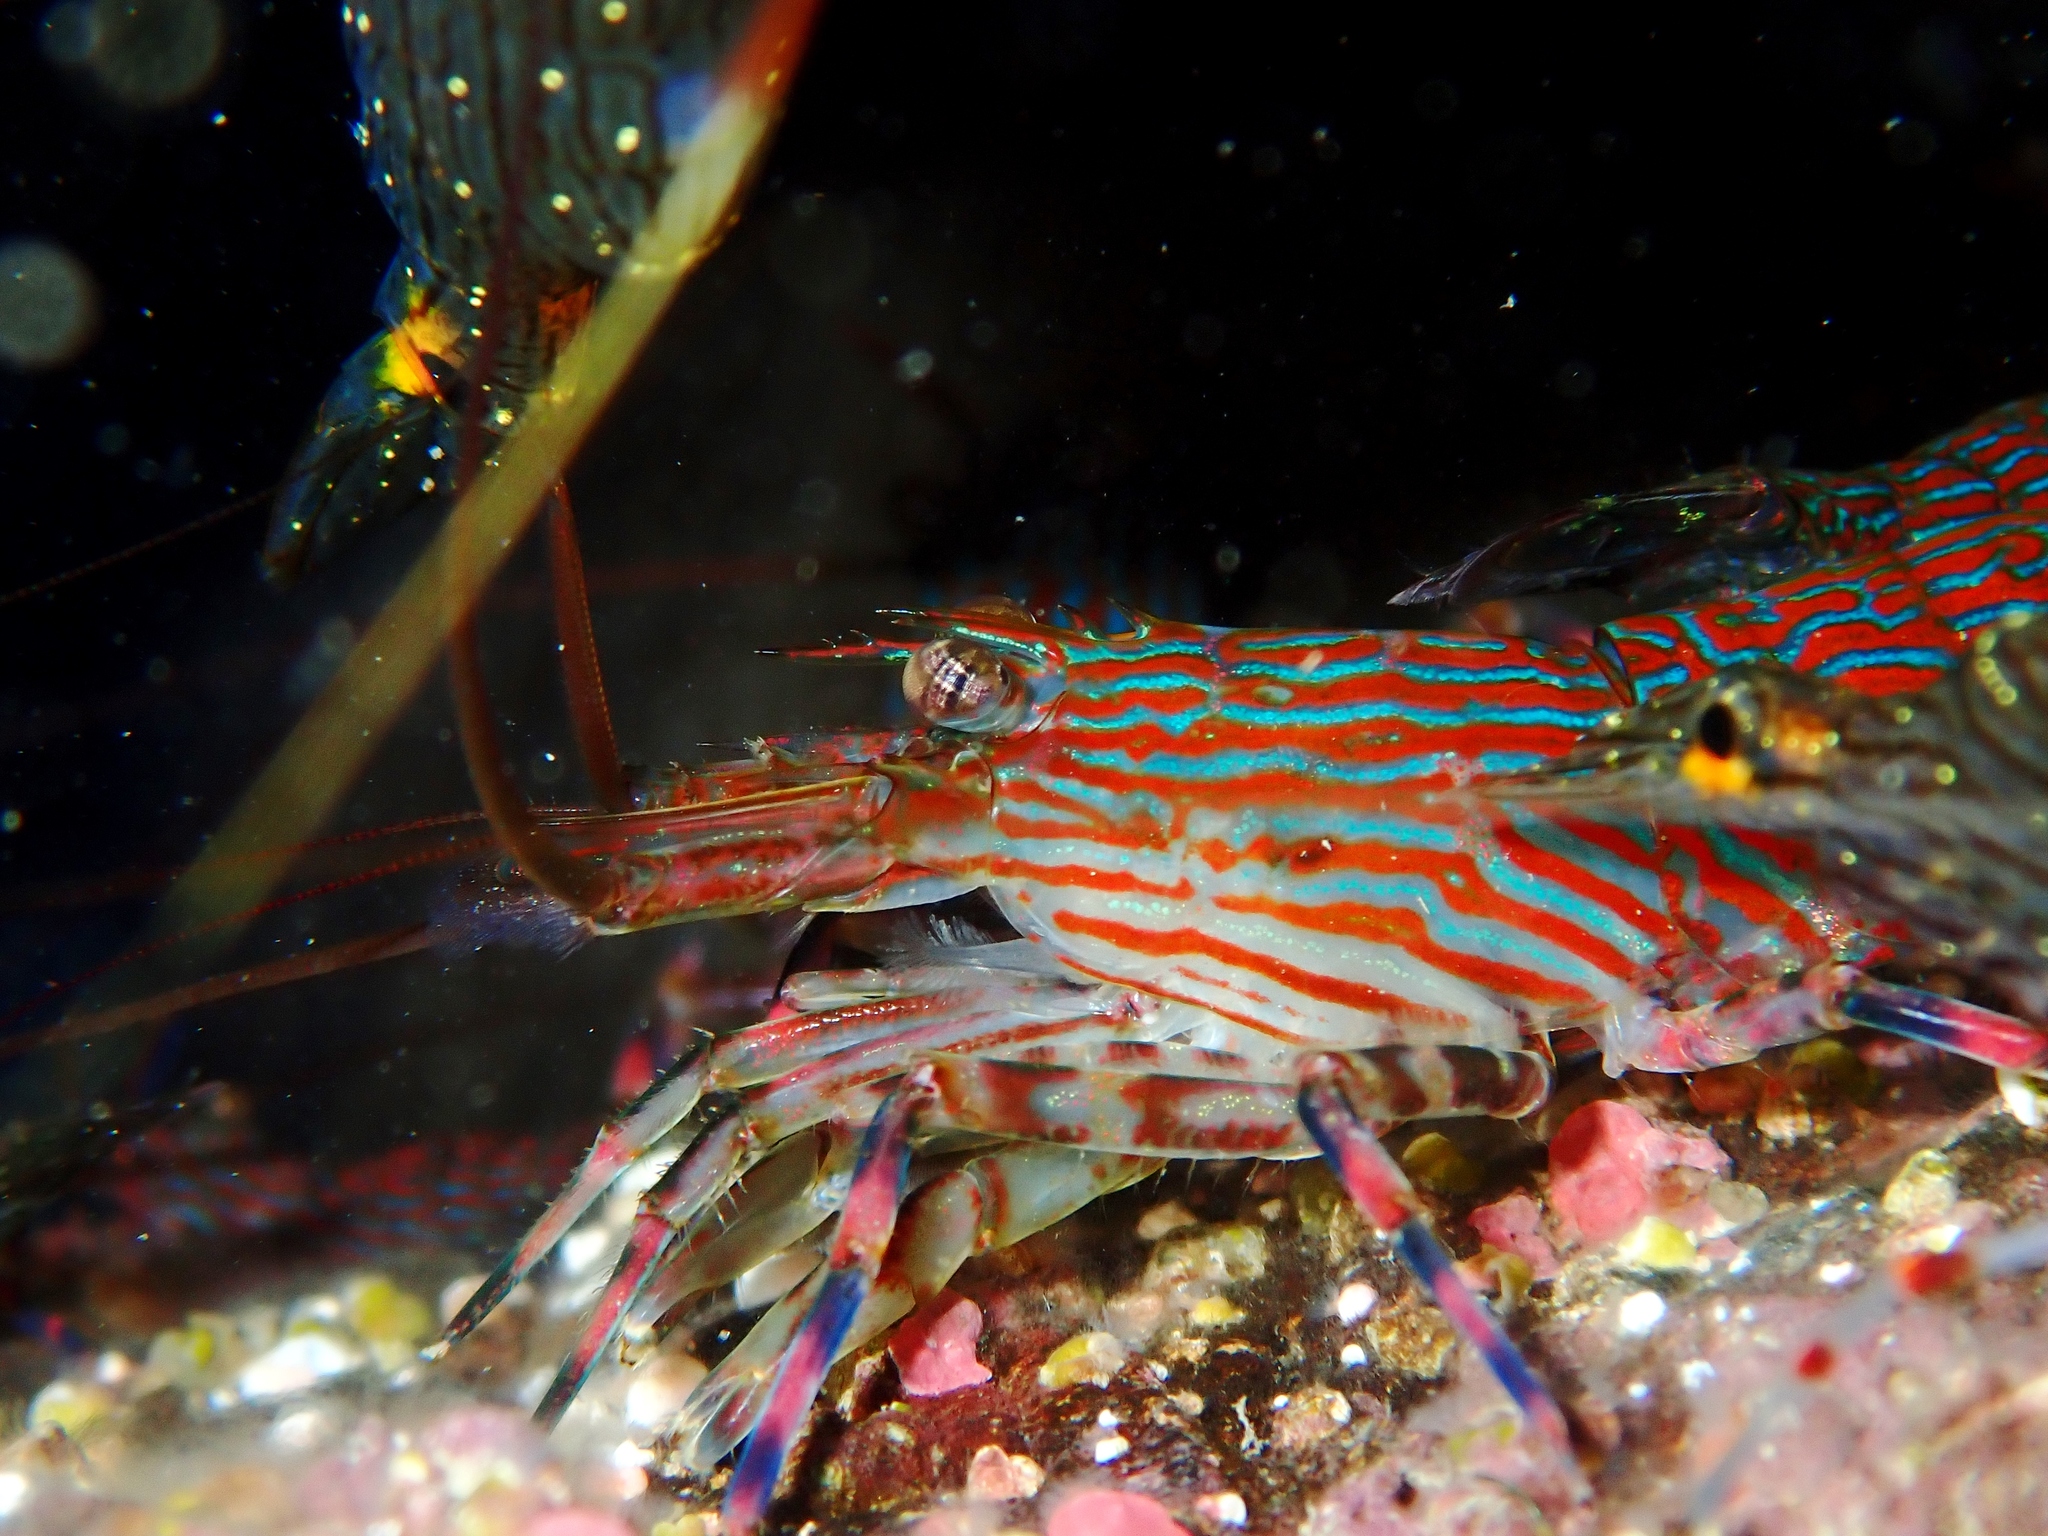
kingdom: Animalia
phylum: Arthropoda
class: Malacostraca
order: Decapoda
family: Hippolytidae
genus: Alope
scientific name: Alope spinifrons
